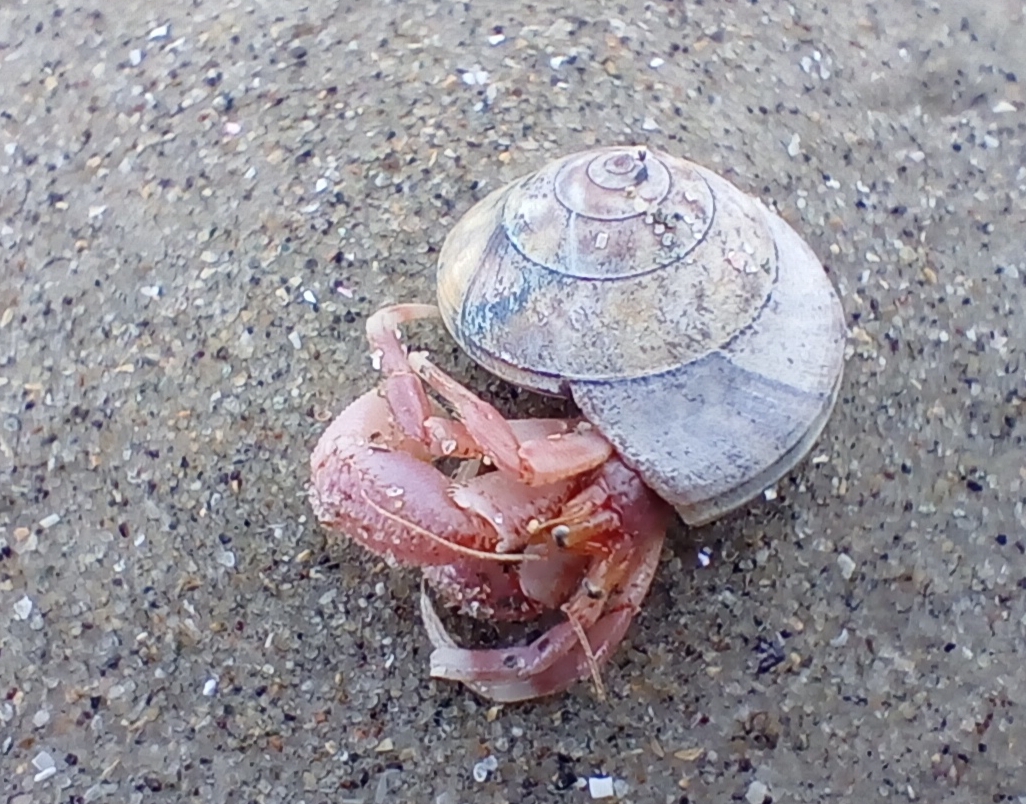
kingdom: Animalia
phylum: Arthropoda
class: Malacostraca
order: Decapoda
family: Paguridae
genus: Pagurus
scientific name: Pagurus albidianthus
